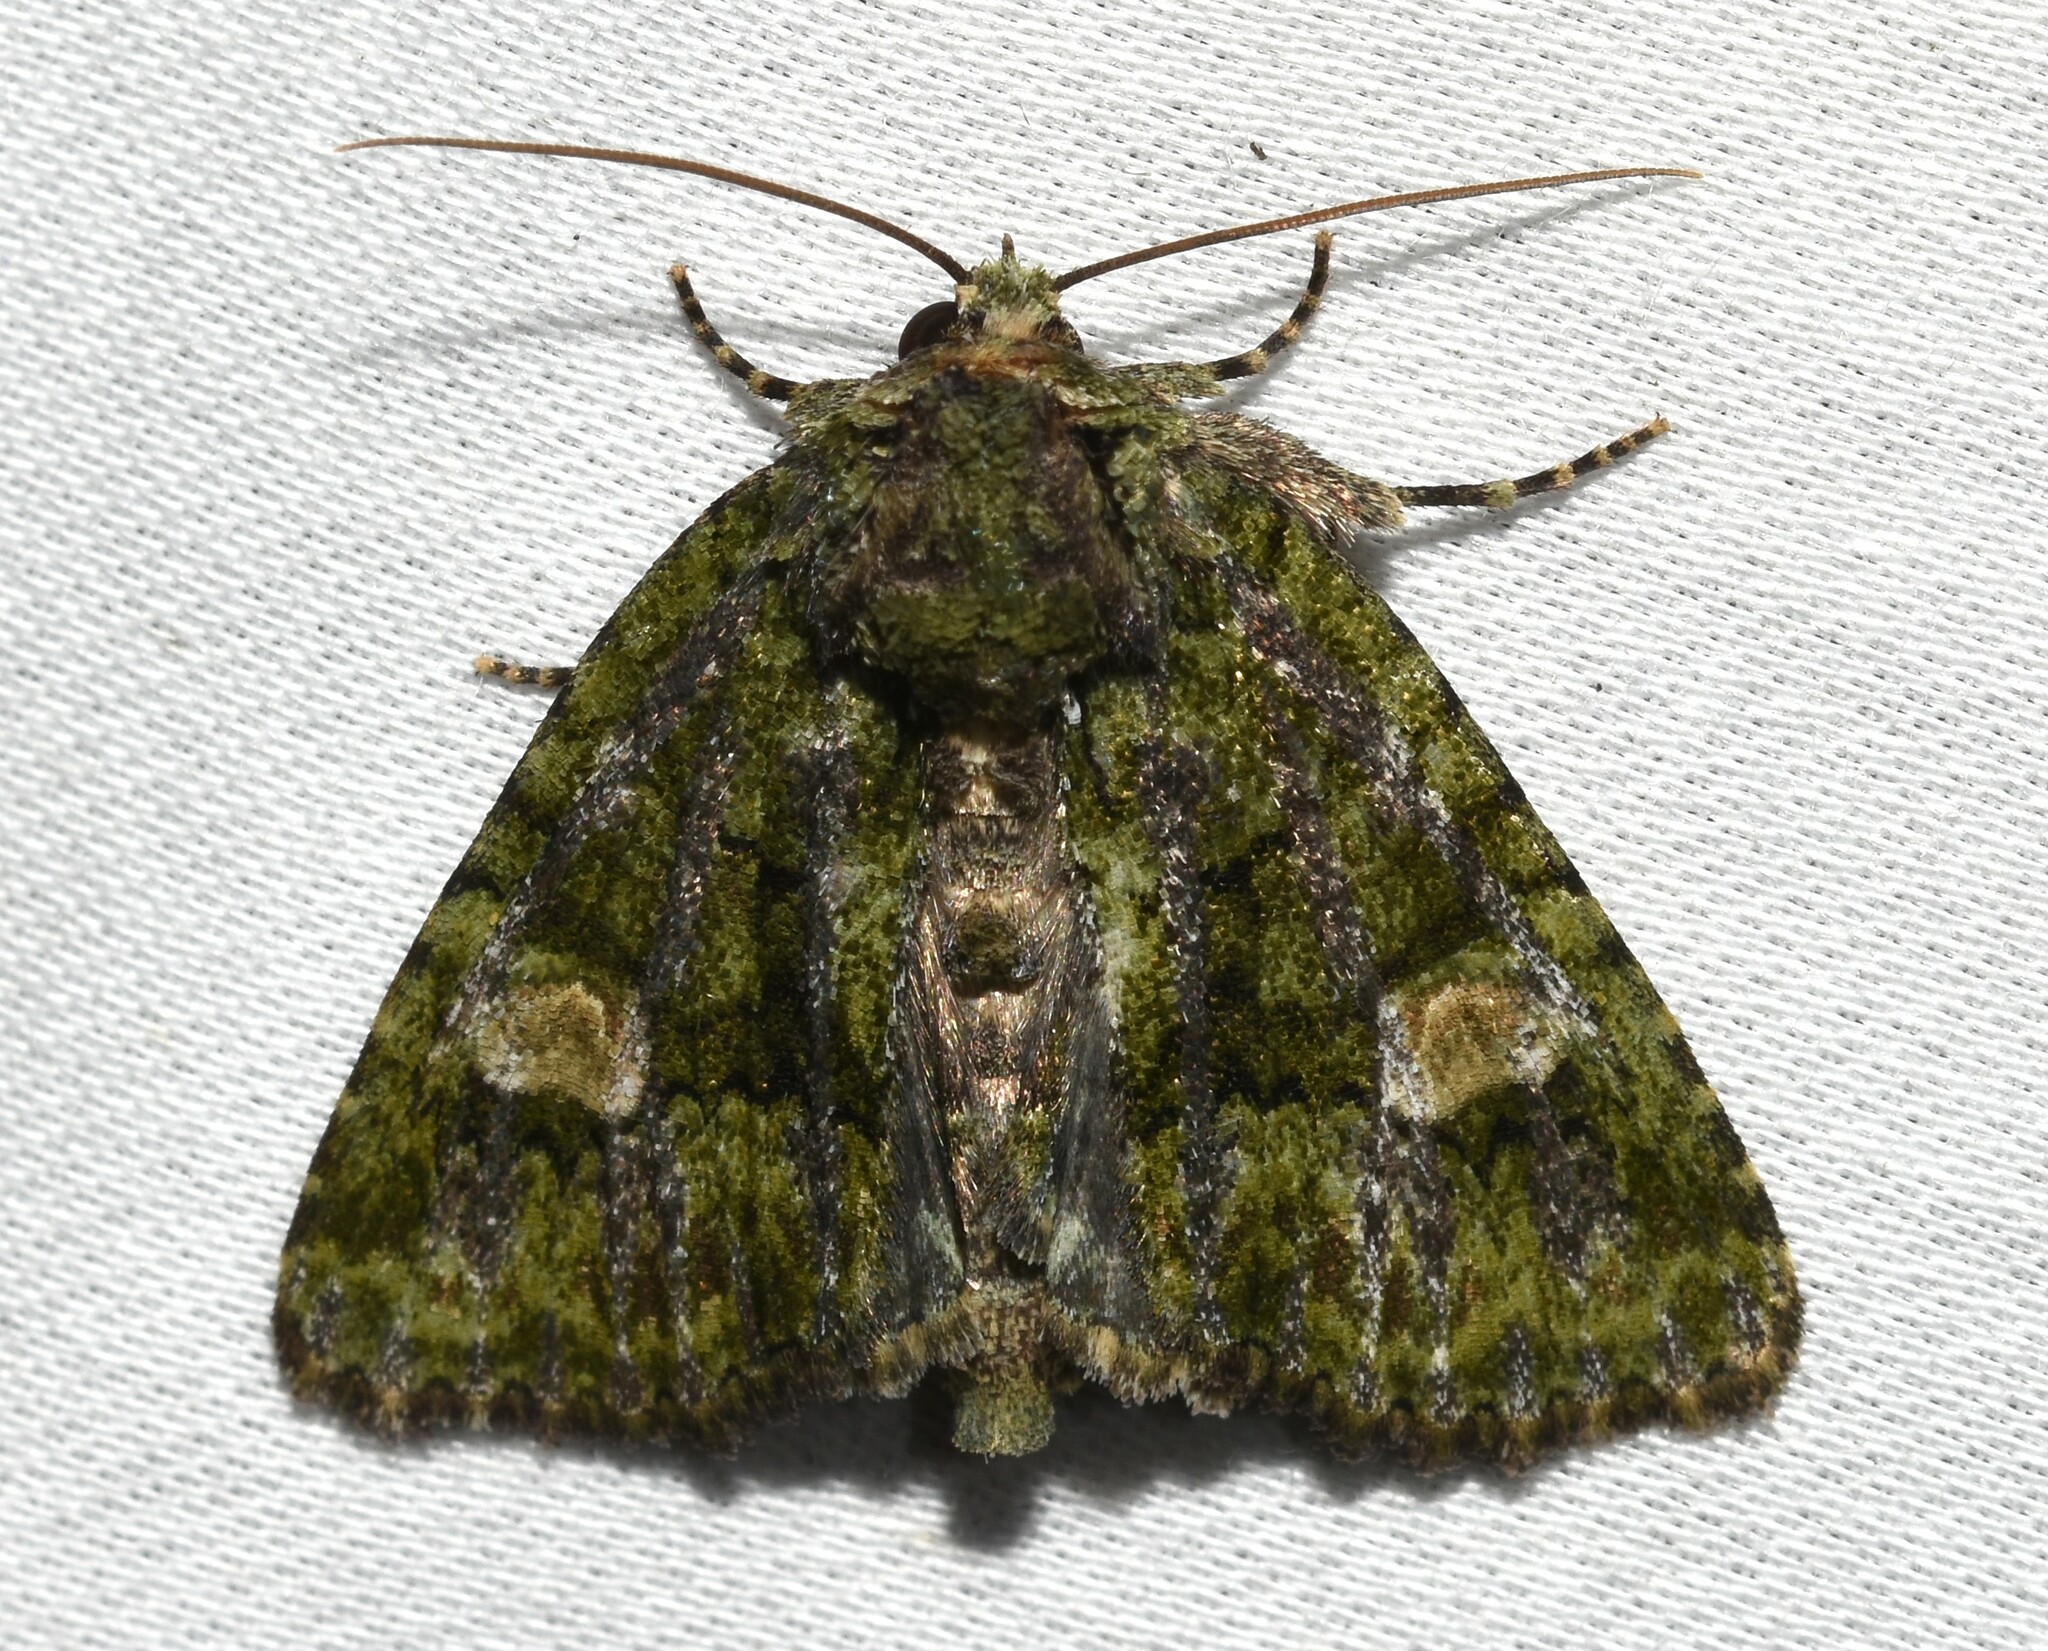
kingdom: Animalia
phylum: Arthropoda
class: Insecta
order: Lepidoptera
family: Noctuidae
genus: Phosphila
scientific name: Phosphila miselioides
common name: Spotted phosphila moth
